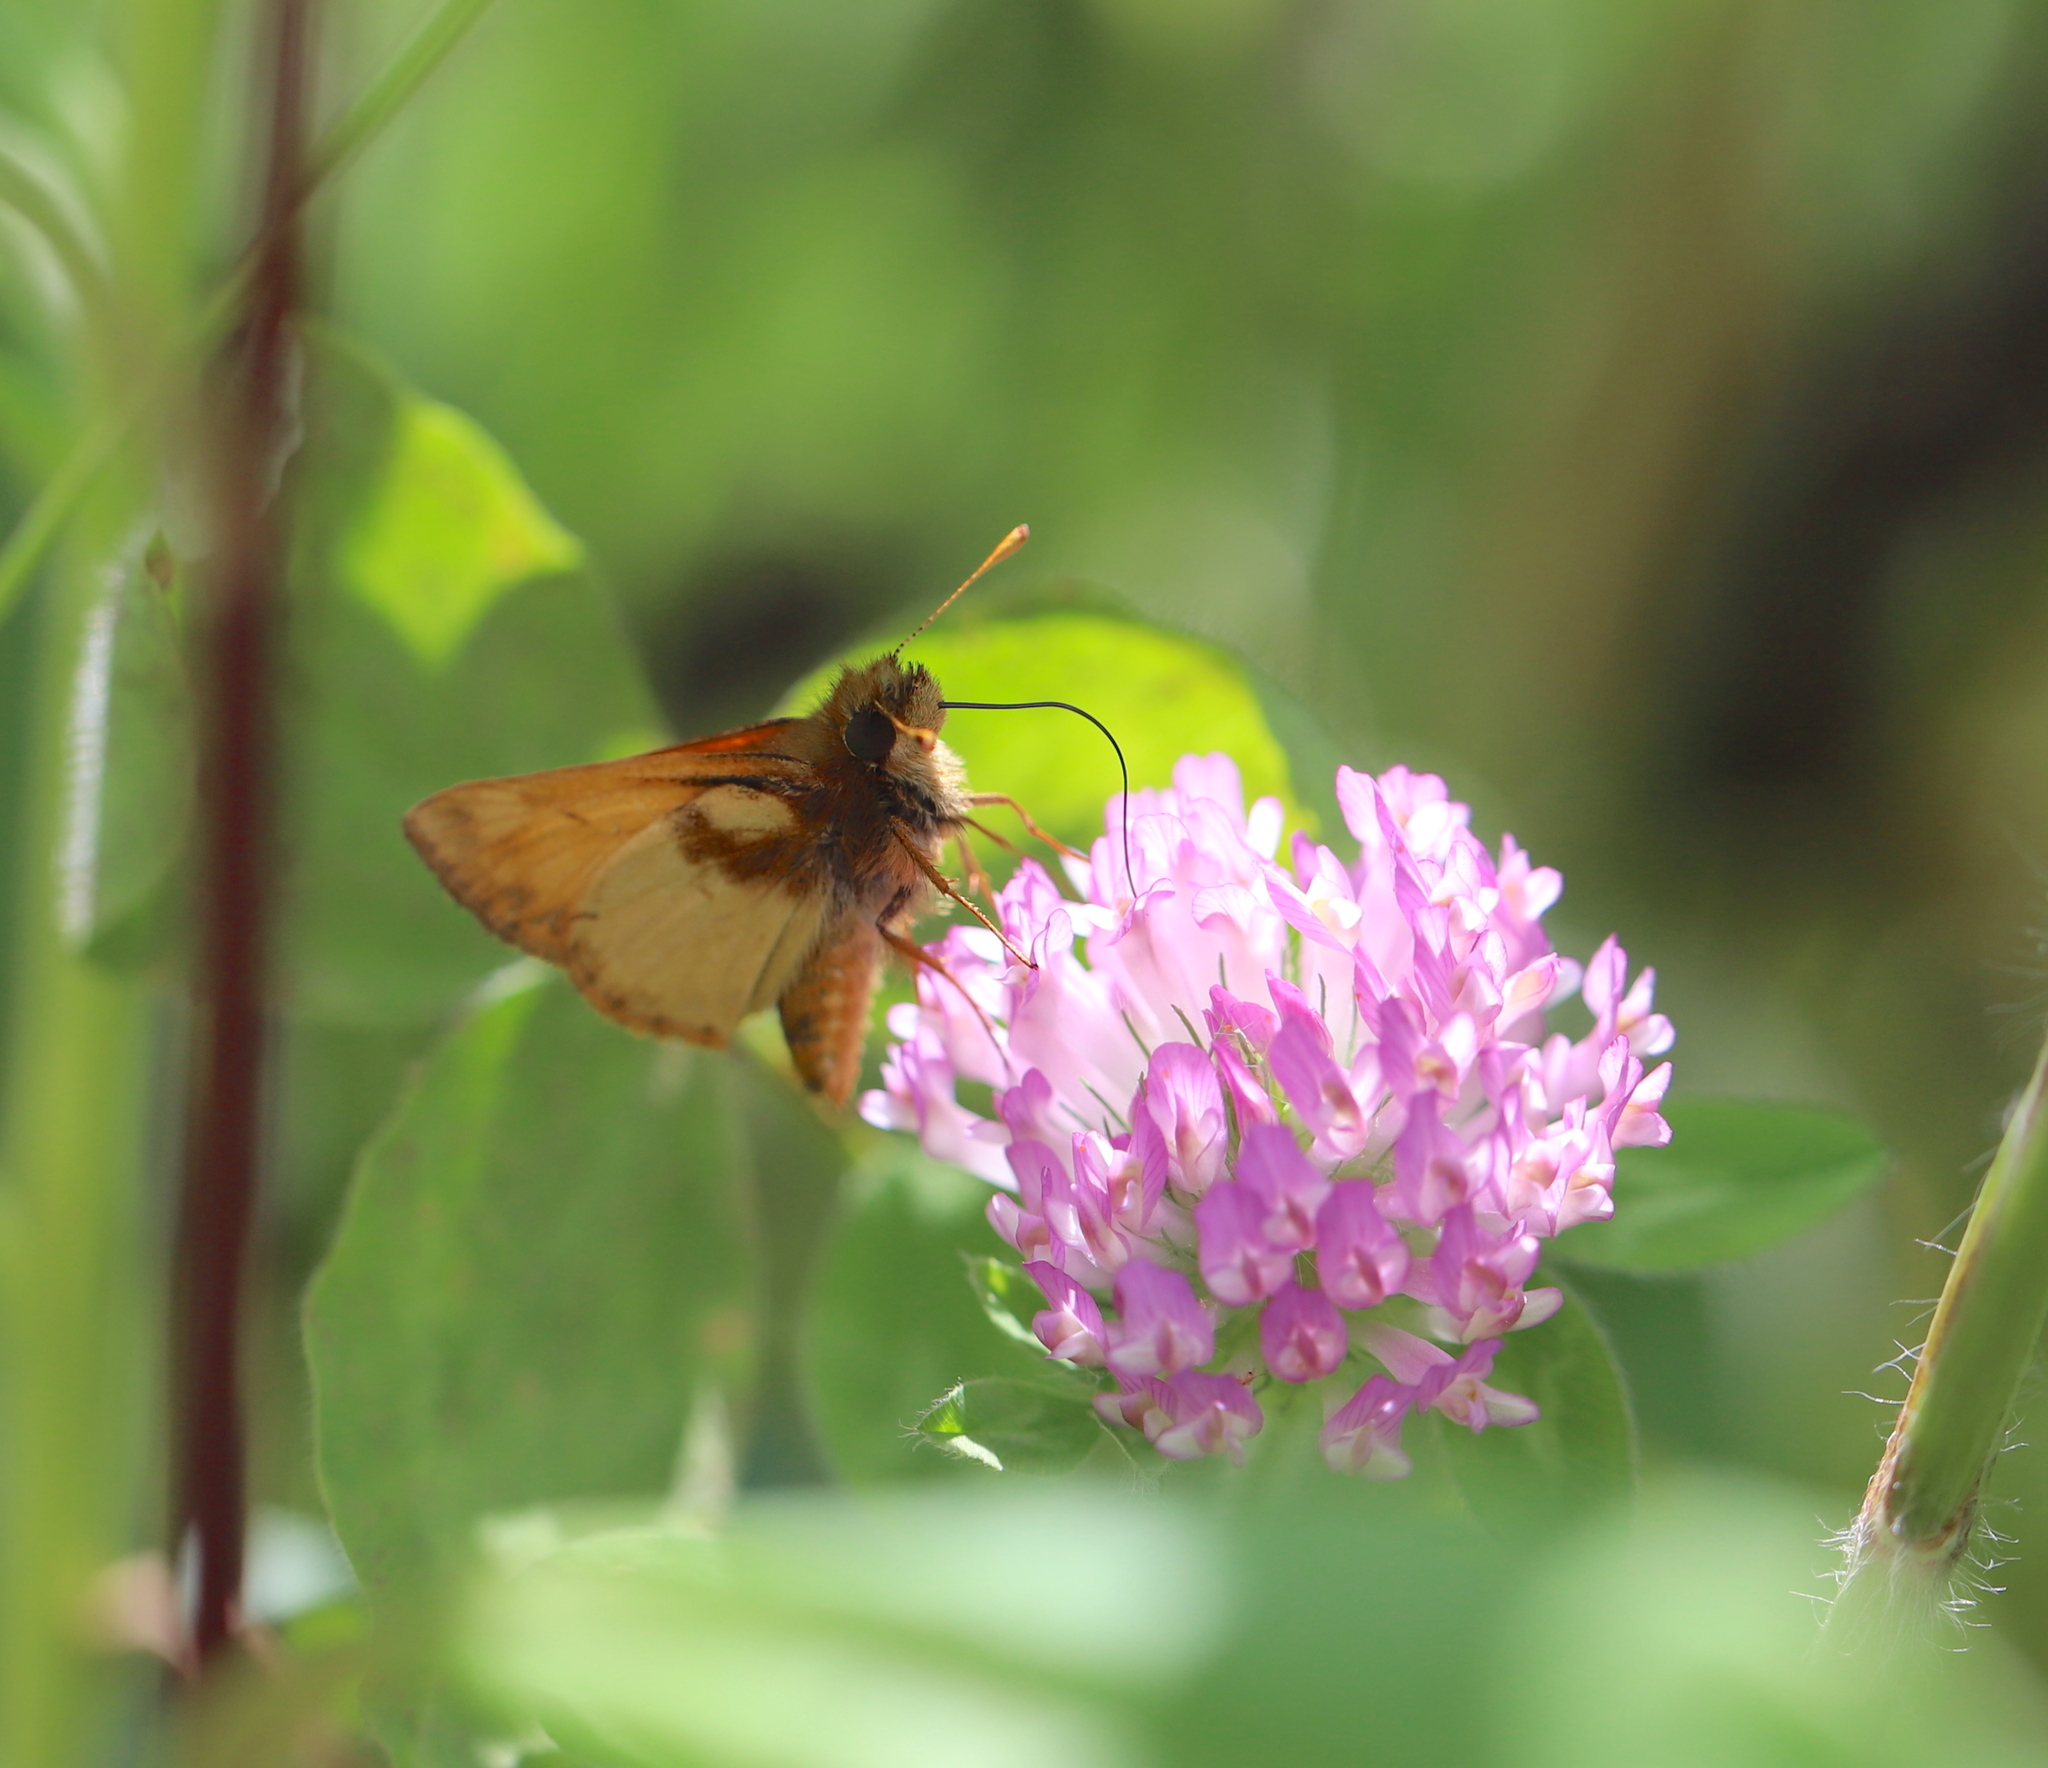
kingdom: Animalia
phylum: Arthropoda
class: Insecta
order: Lepidoptera
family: Hesperiidae
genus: Lon
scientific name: Lon zabulon
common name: Zabulon skipper
